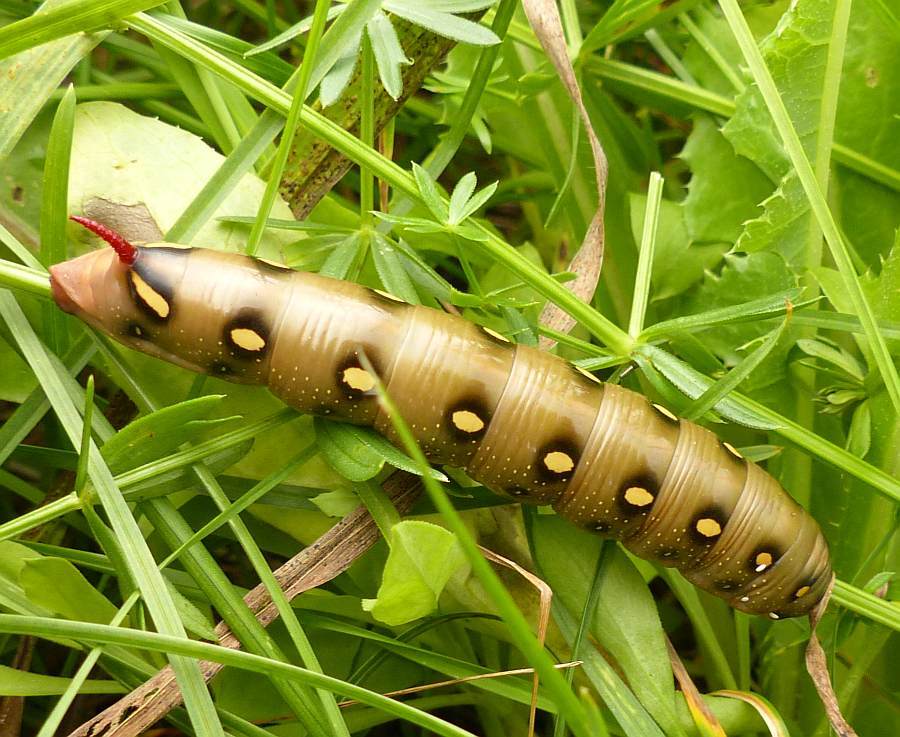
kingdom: Animalia
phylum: Arthropoda
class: Insecta
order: Lepidoptera
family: Sphingidae
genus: Hyles
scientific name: Hyles gallii
